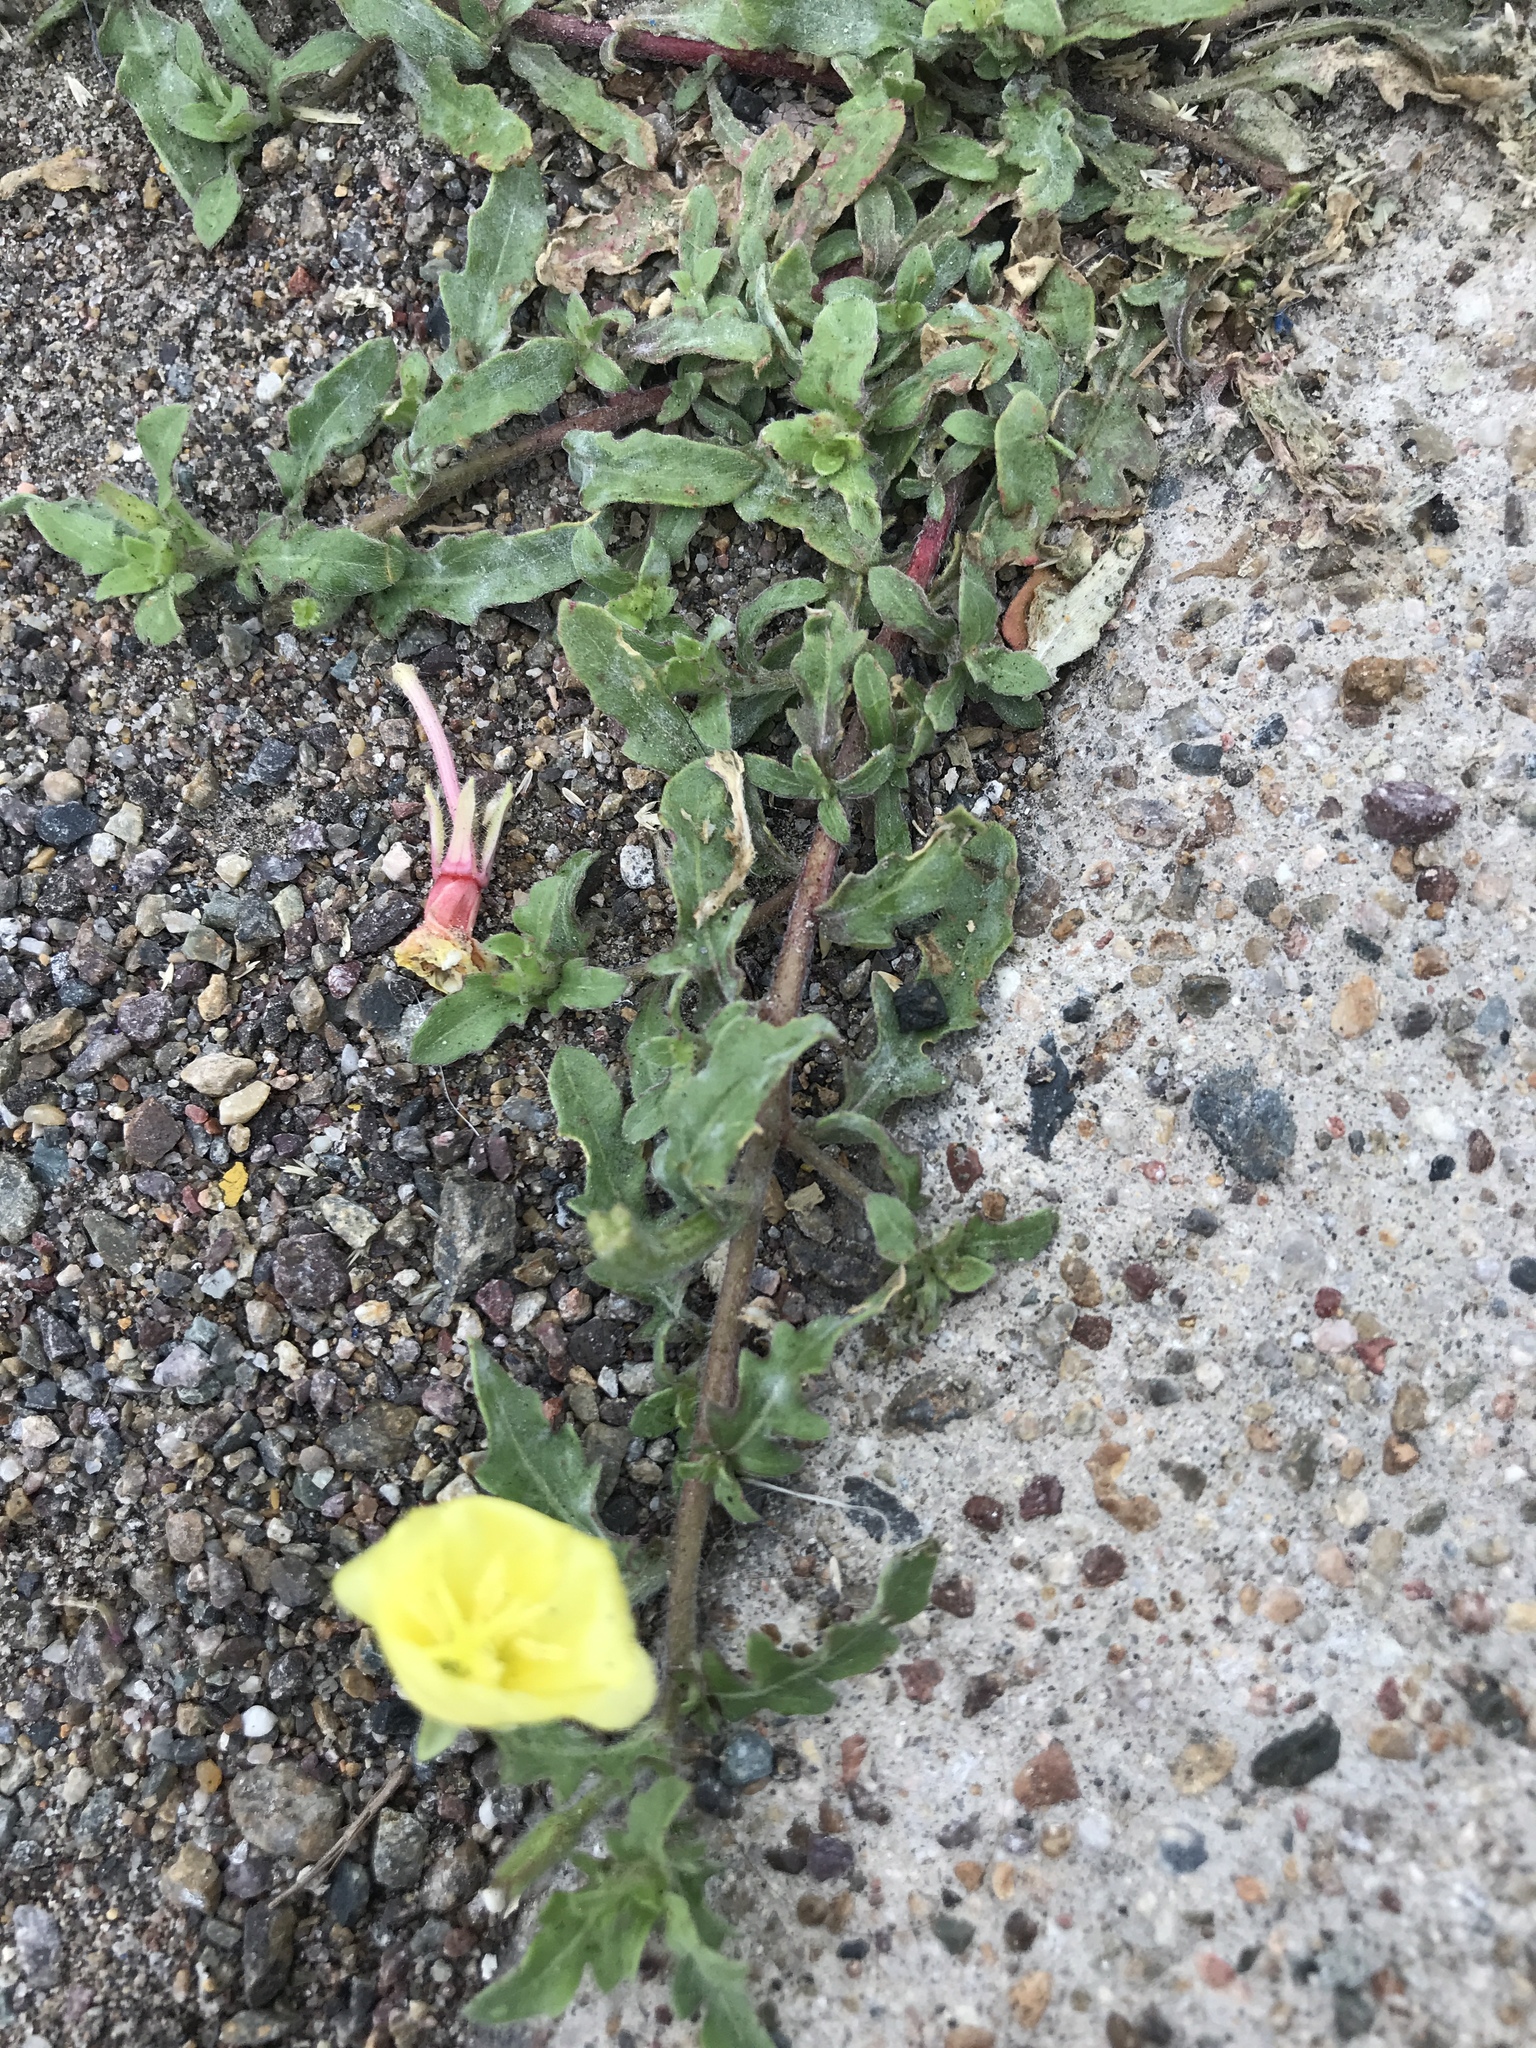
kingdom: Plantae
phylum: Tracheophyta
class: Magnoliopsida
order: Myrtales
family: Onagraceae
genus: Oenothera
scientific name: Oenothera laciniata
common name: Cut-leaved evening-primrose
